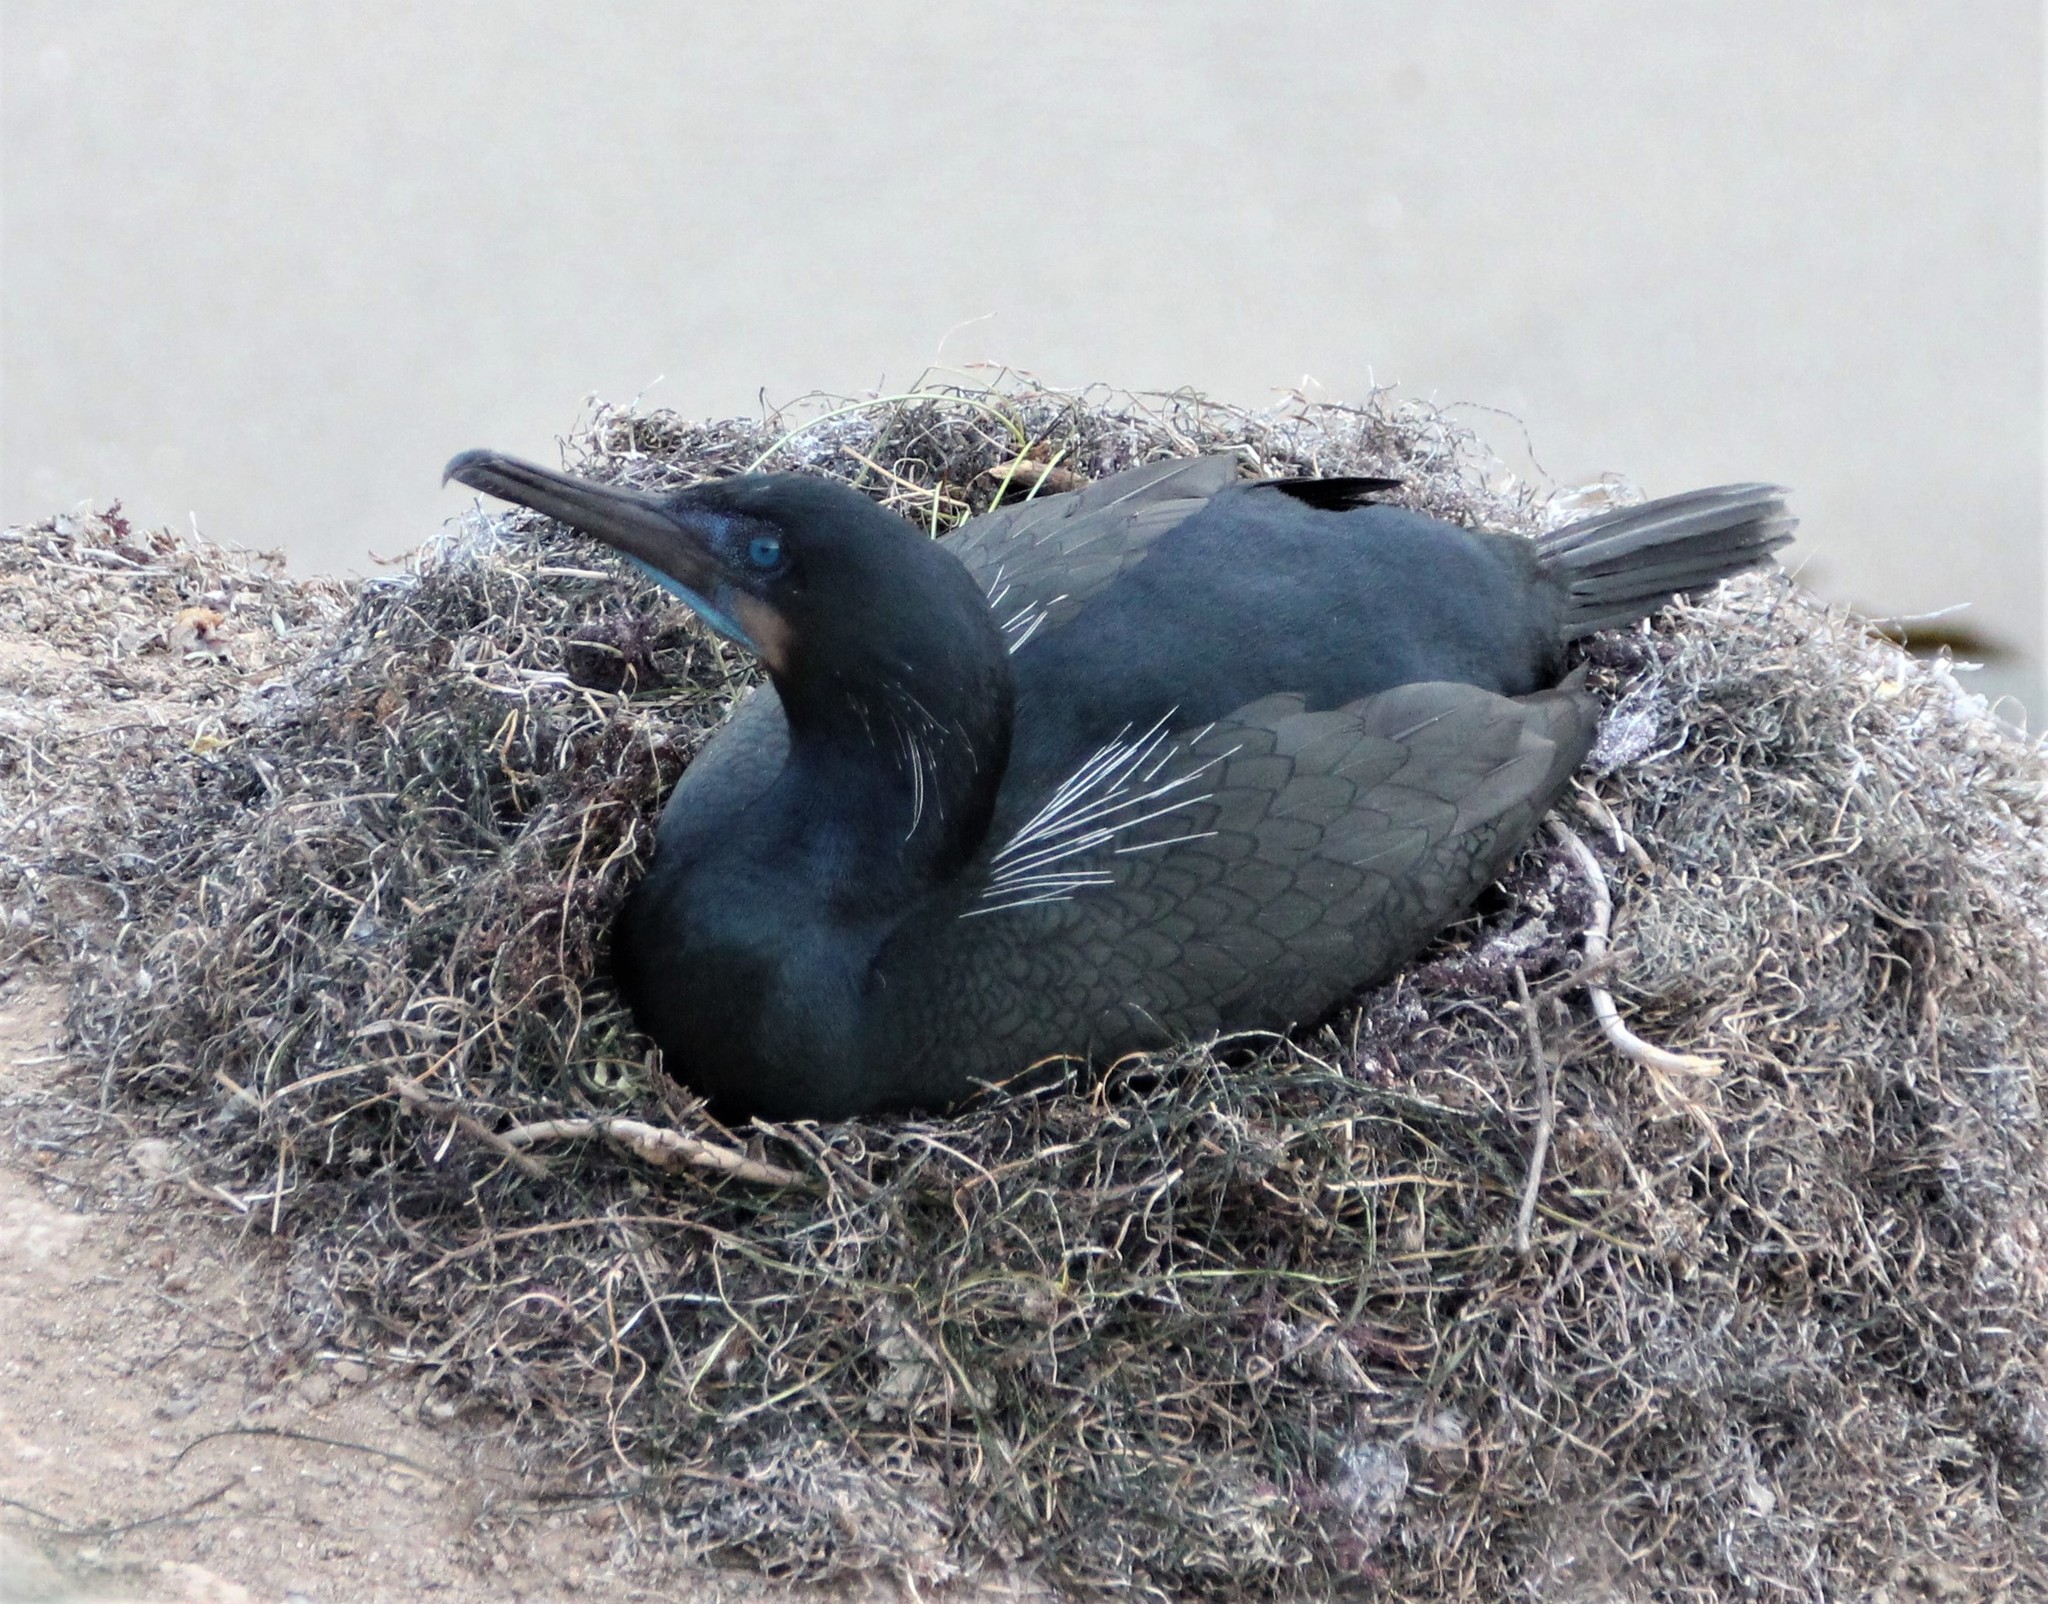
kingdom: Animalia
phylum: Chordata
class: Aves
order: Suliformes
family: Phalacrocoracidae
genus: Urile
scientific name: Urile penicillatus
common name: Brandt's cormorant
